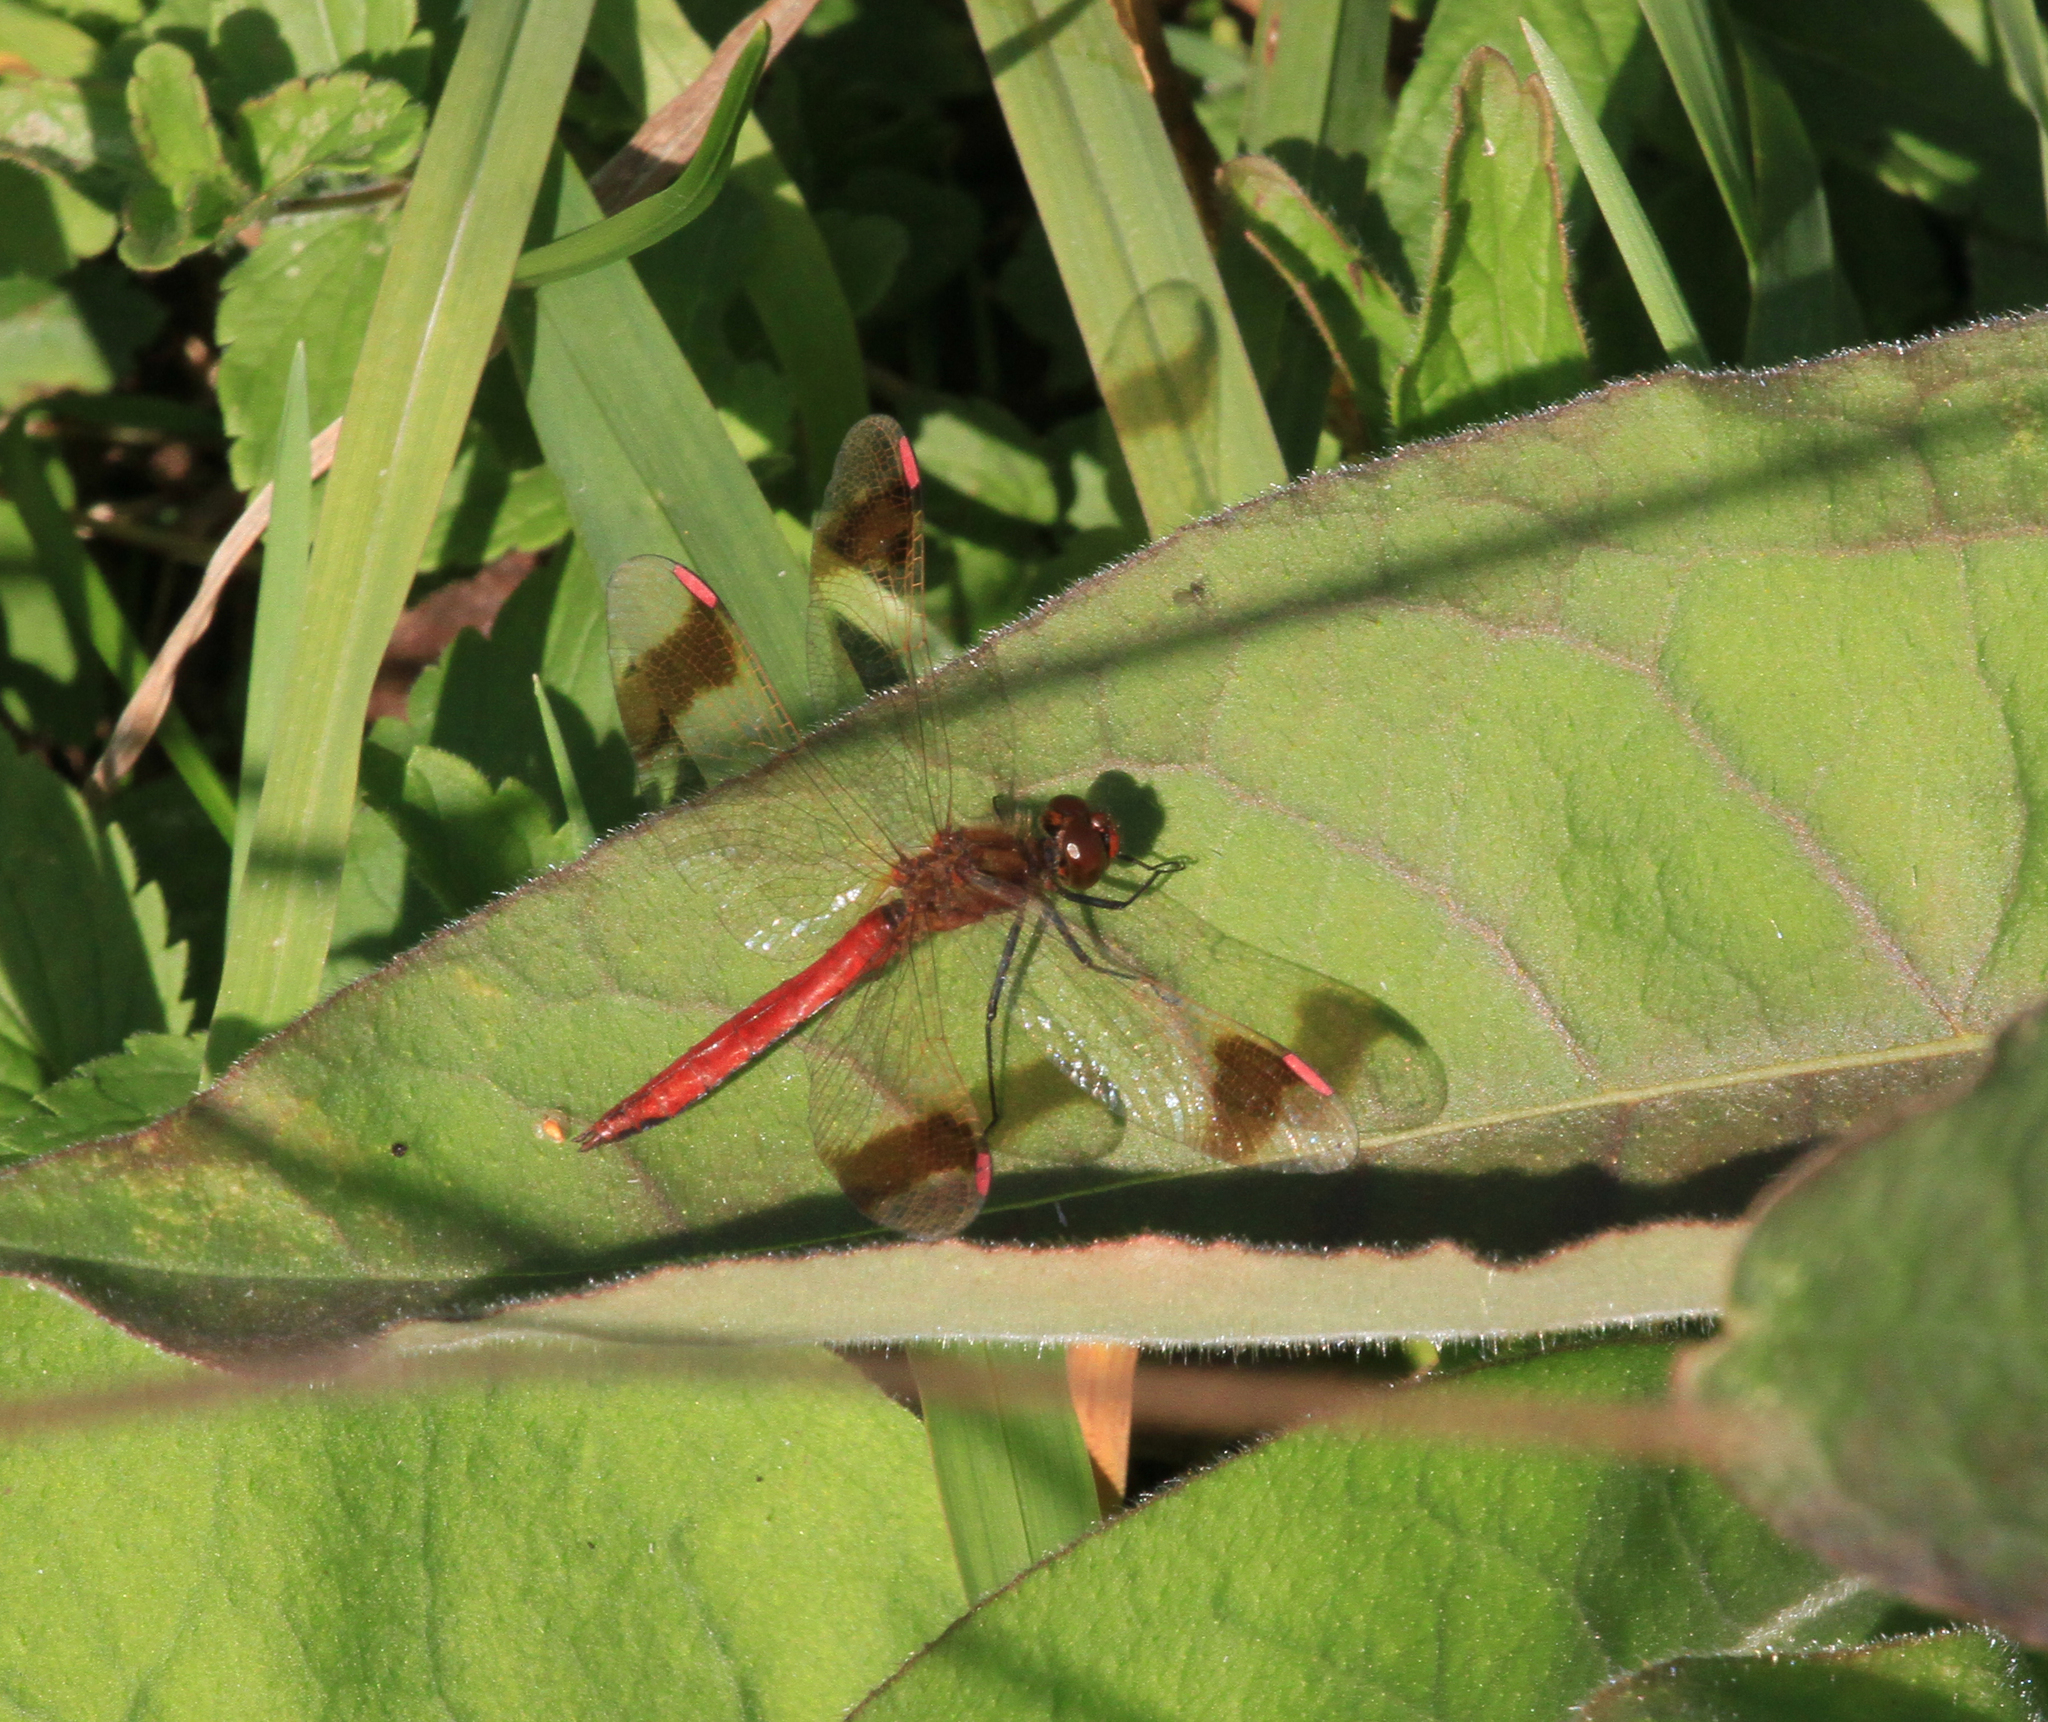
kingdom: Animalia
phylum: Arthropoda
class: Insecta
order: Odonata
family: Libellulidae
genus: Sympetrum
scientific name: Sympetrum pedemontanum
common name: Banded darter
